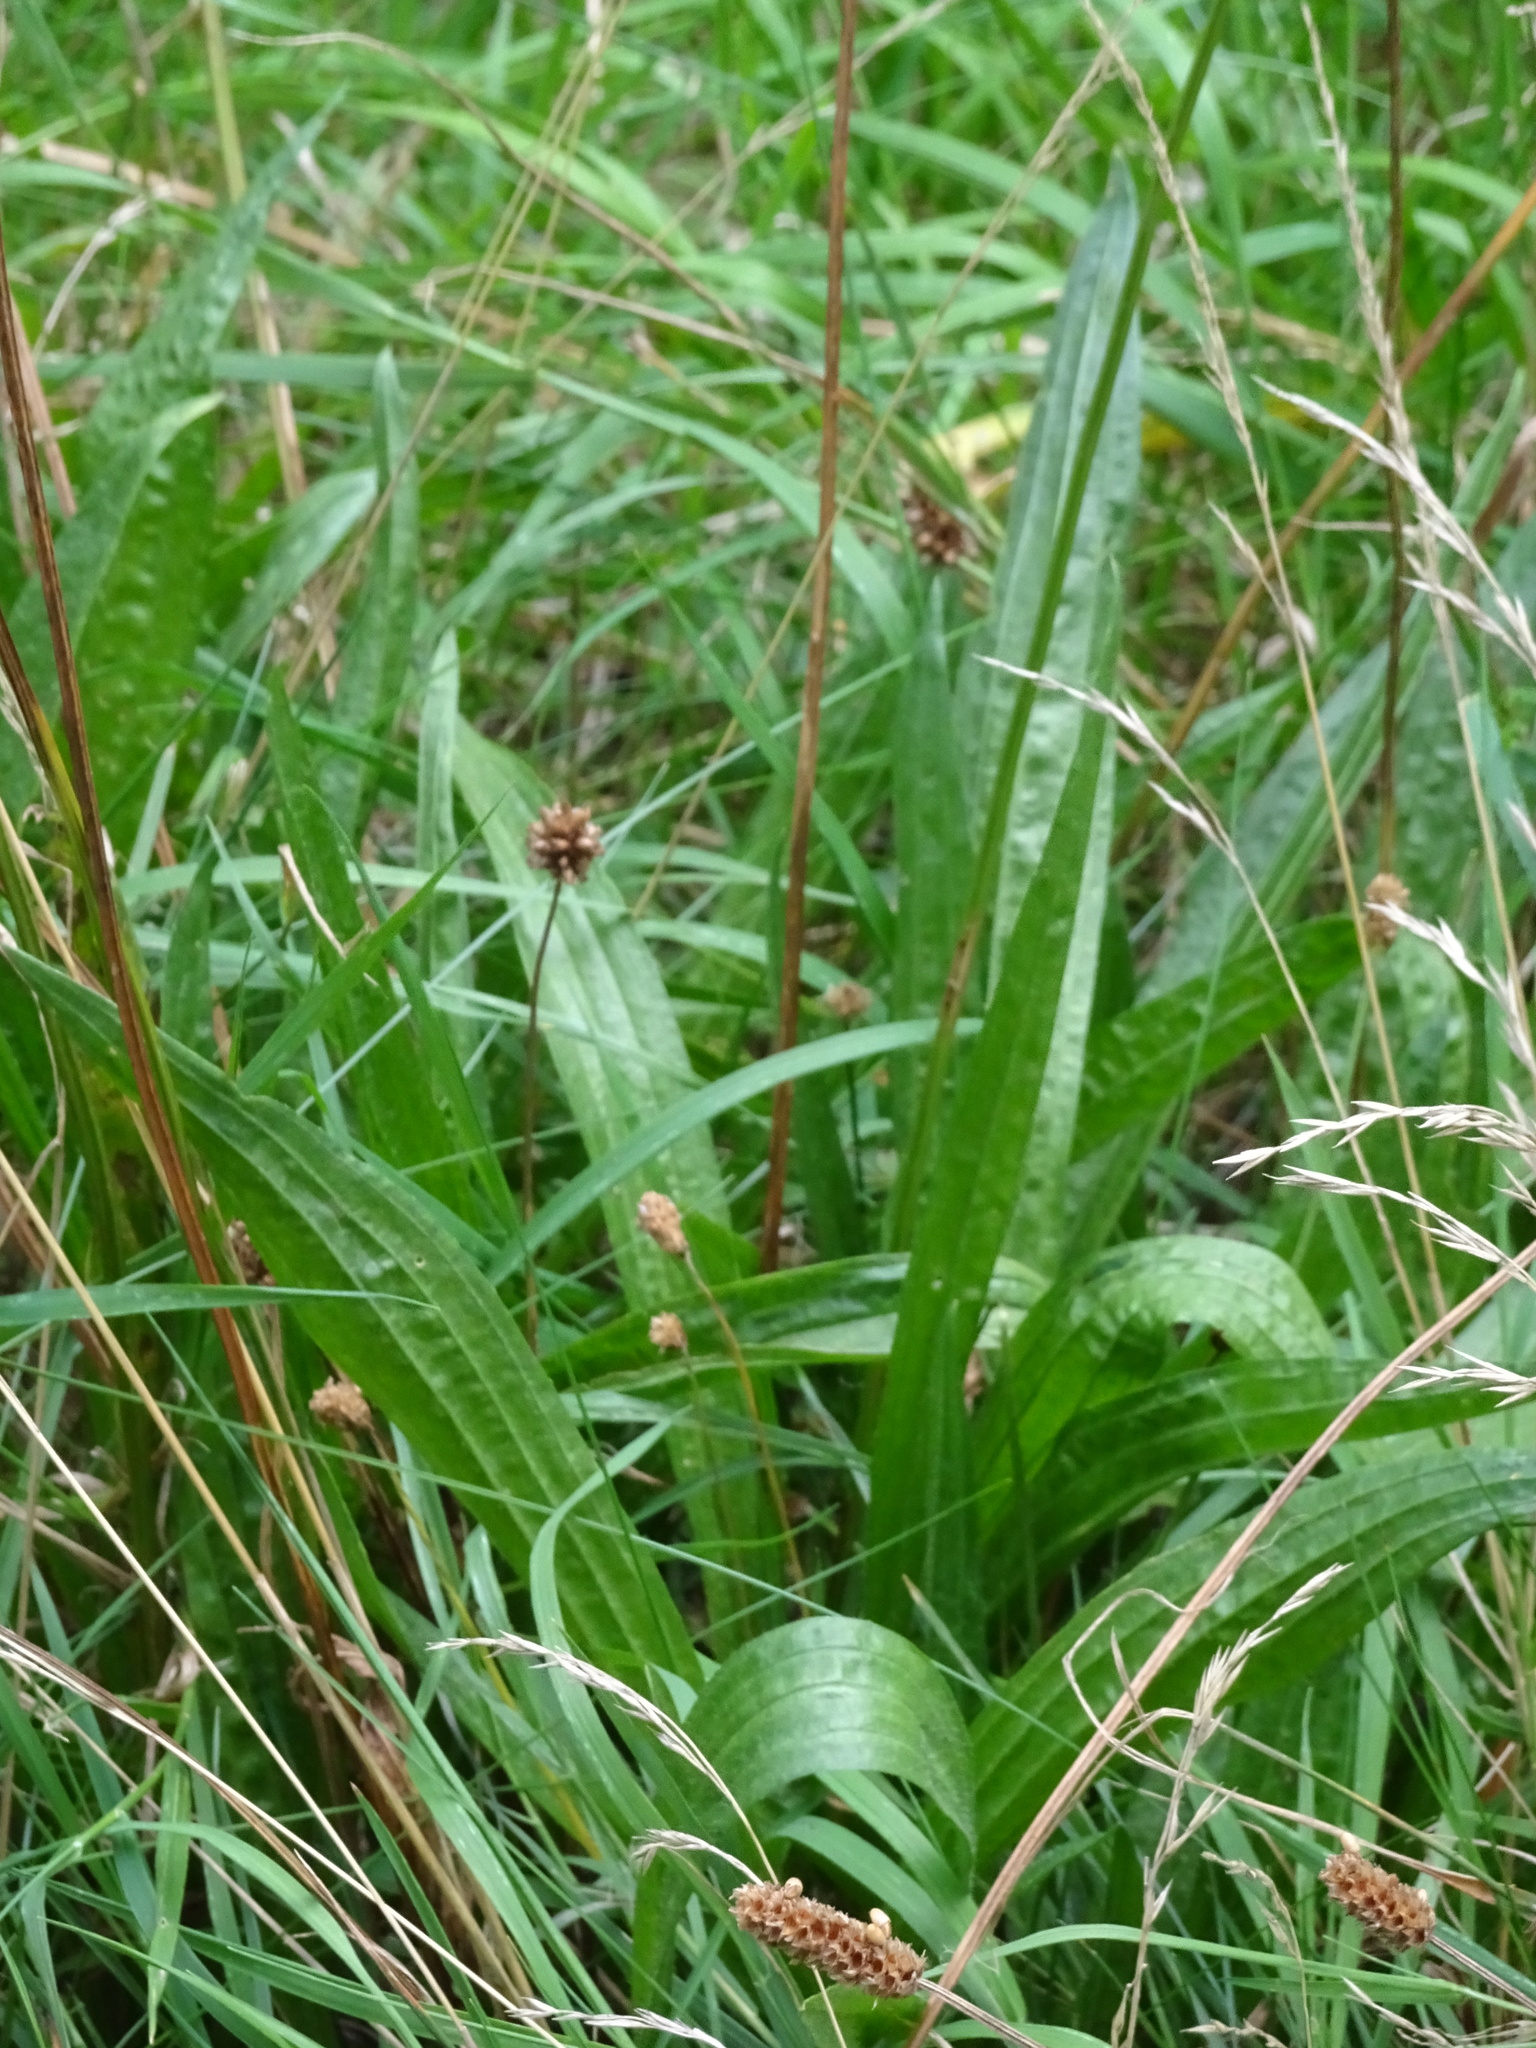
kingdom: Plantae
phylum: Tracheophyta
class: Magnoliopsida
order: Lamiales
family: Plantaginaceae
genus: Plantago
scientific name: Plantago lanceolata
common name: Ribwort plantain
